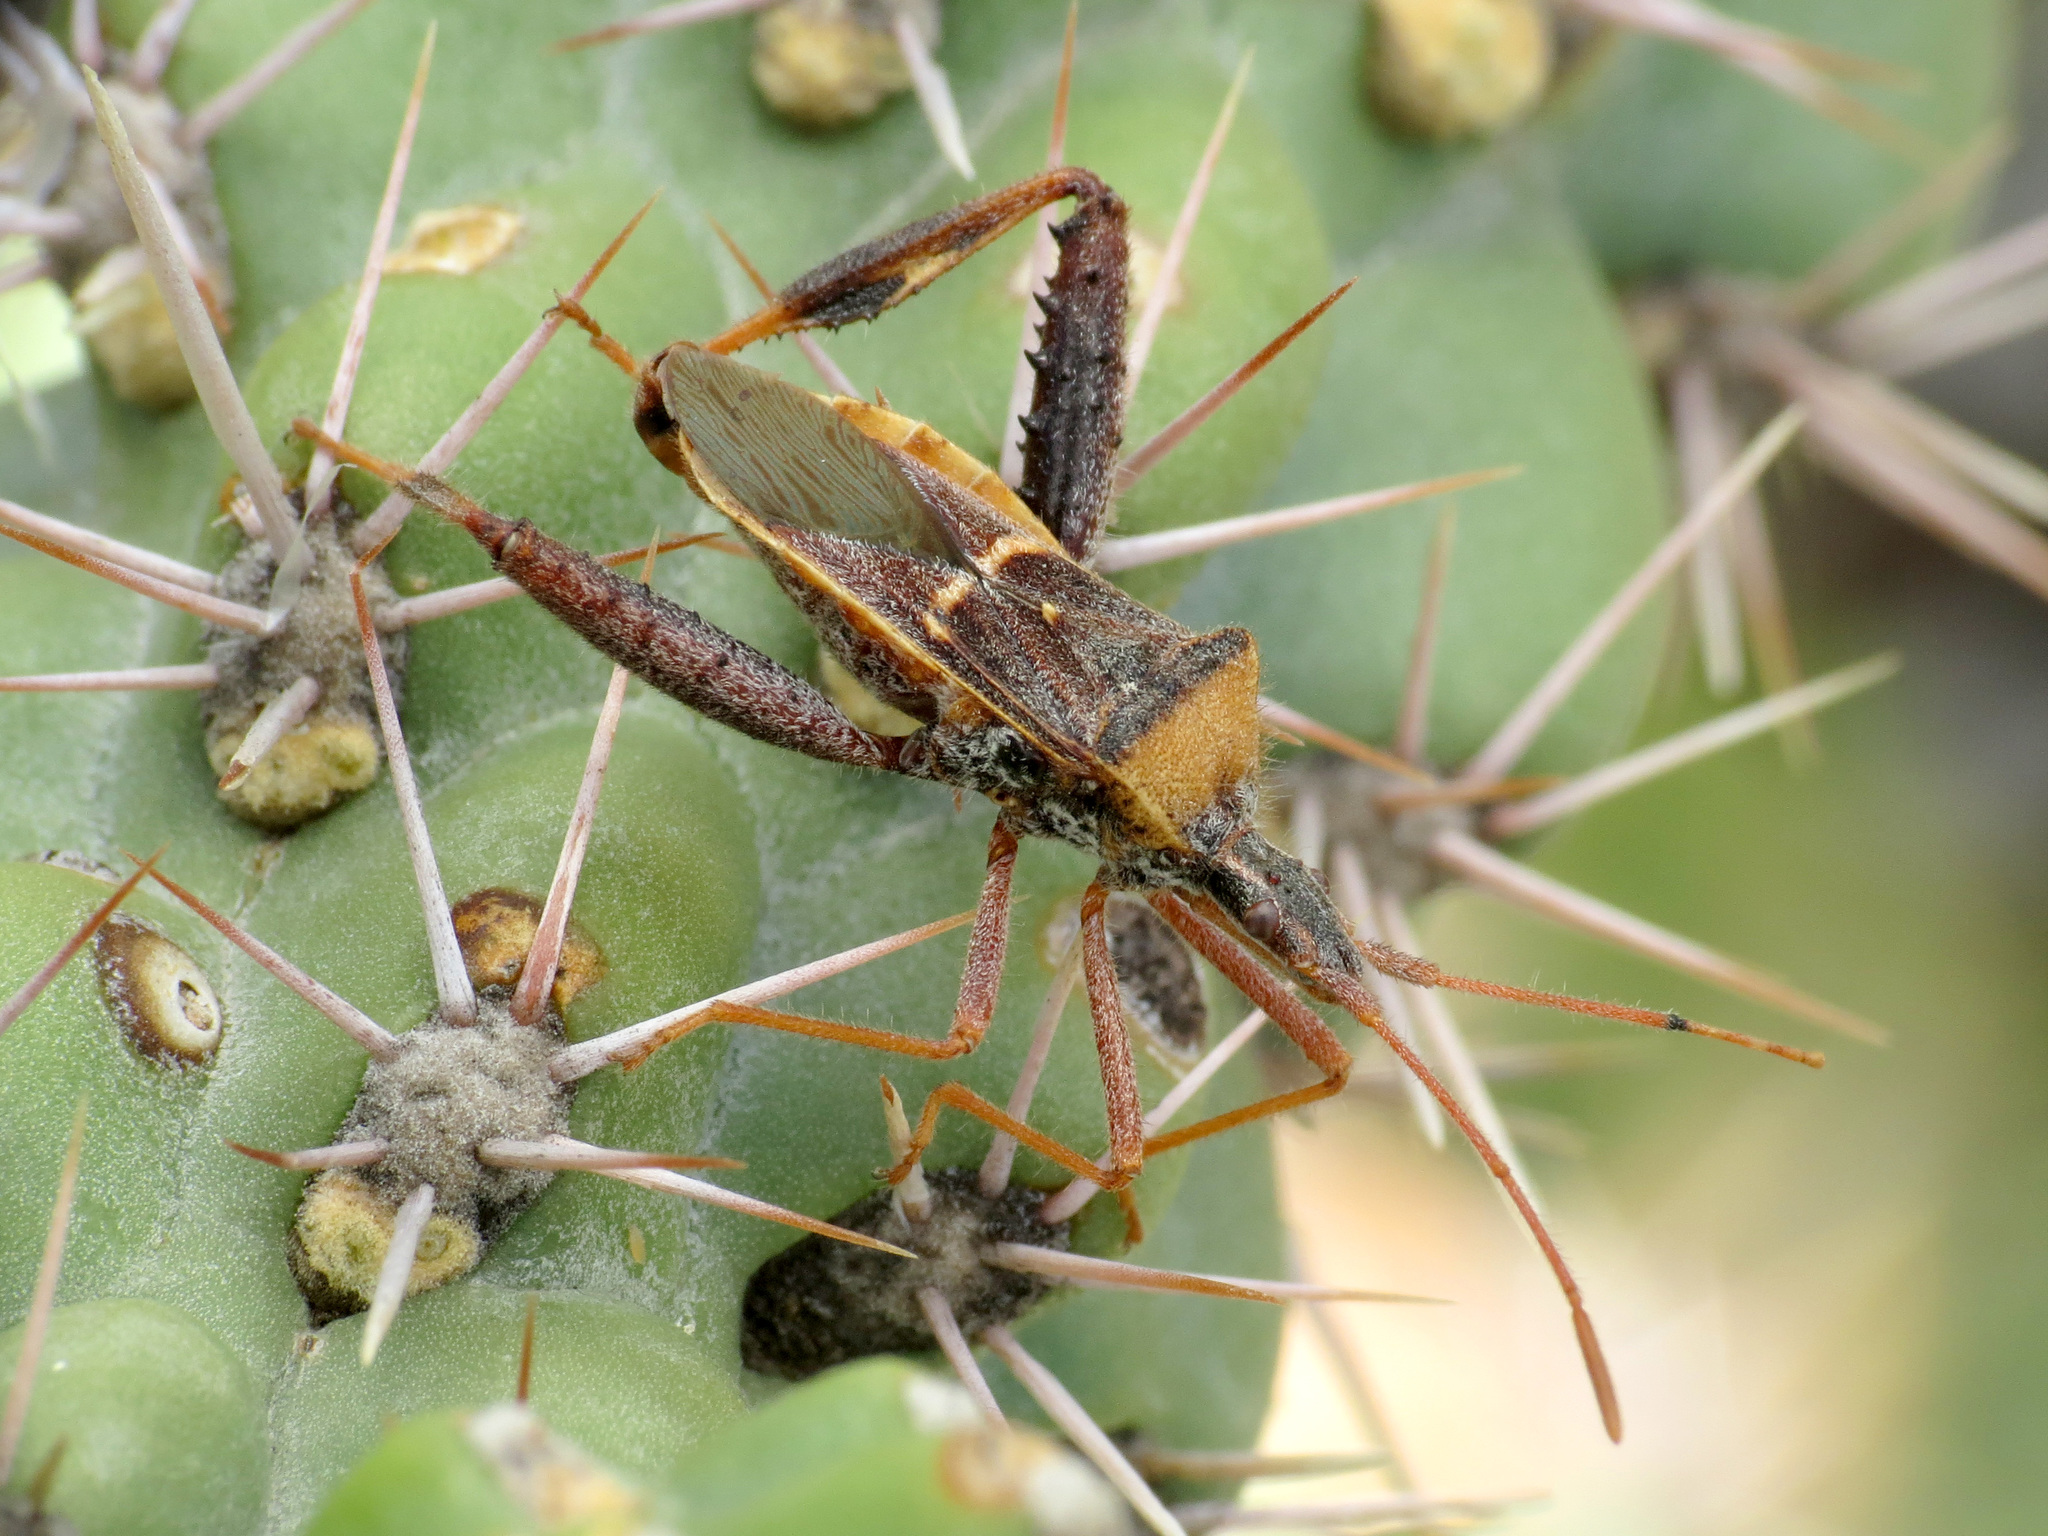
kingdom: Animalia
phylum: Arthropoda
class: Insecta
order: Hemiptera
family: Coreidae
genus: Narnia
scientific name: Narnia snowi
